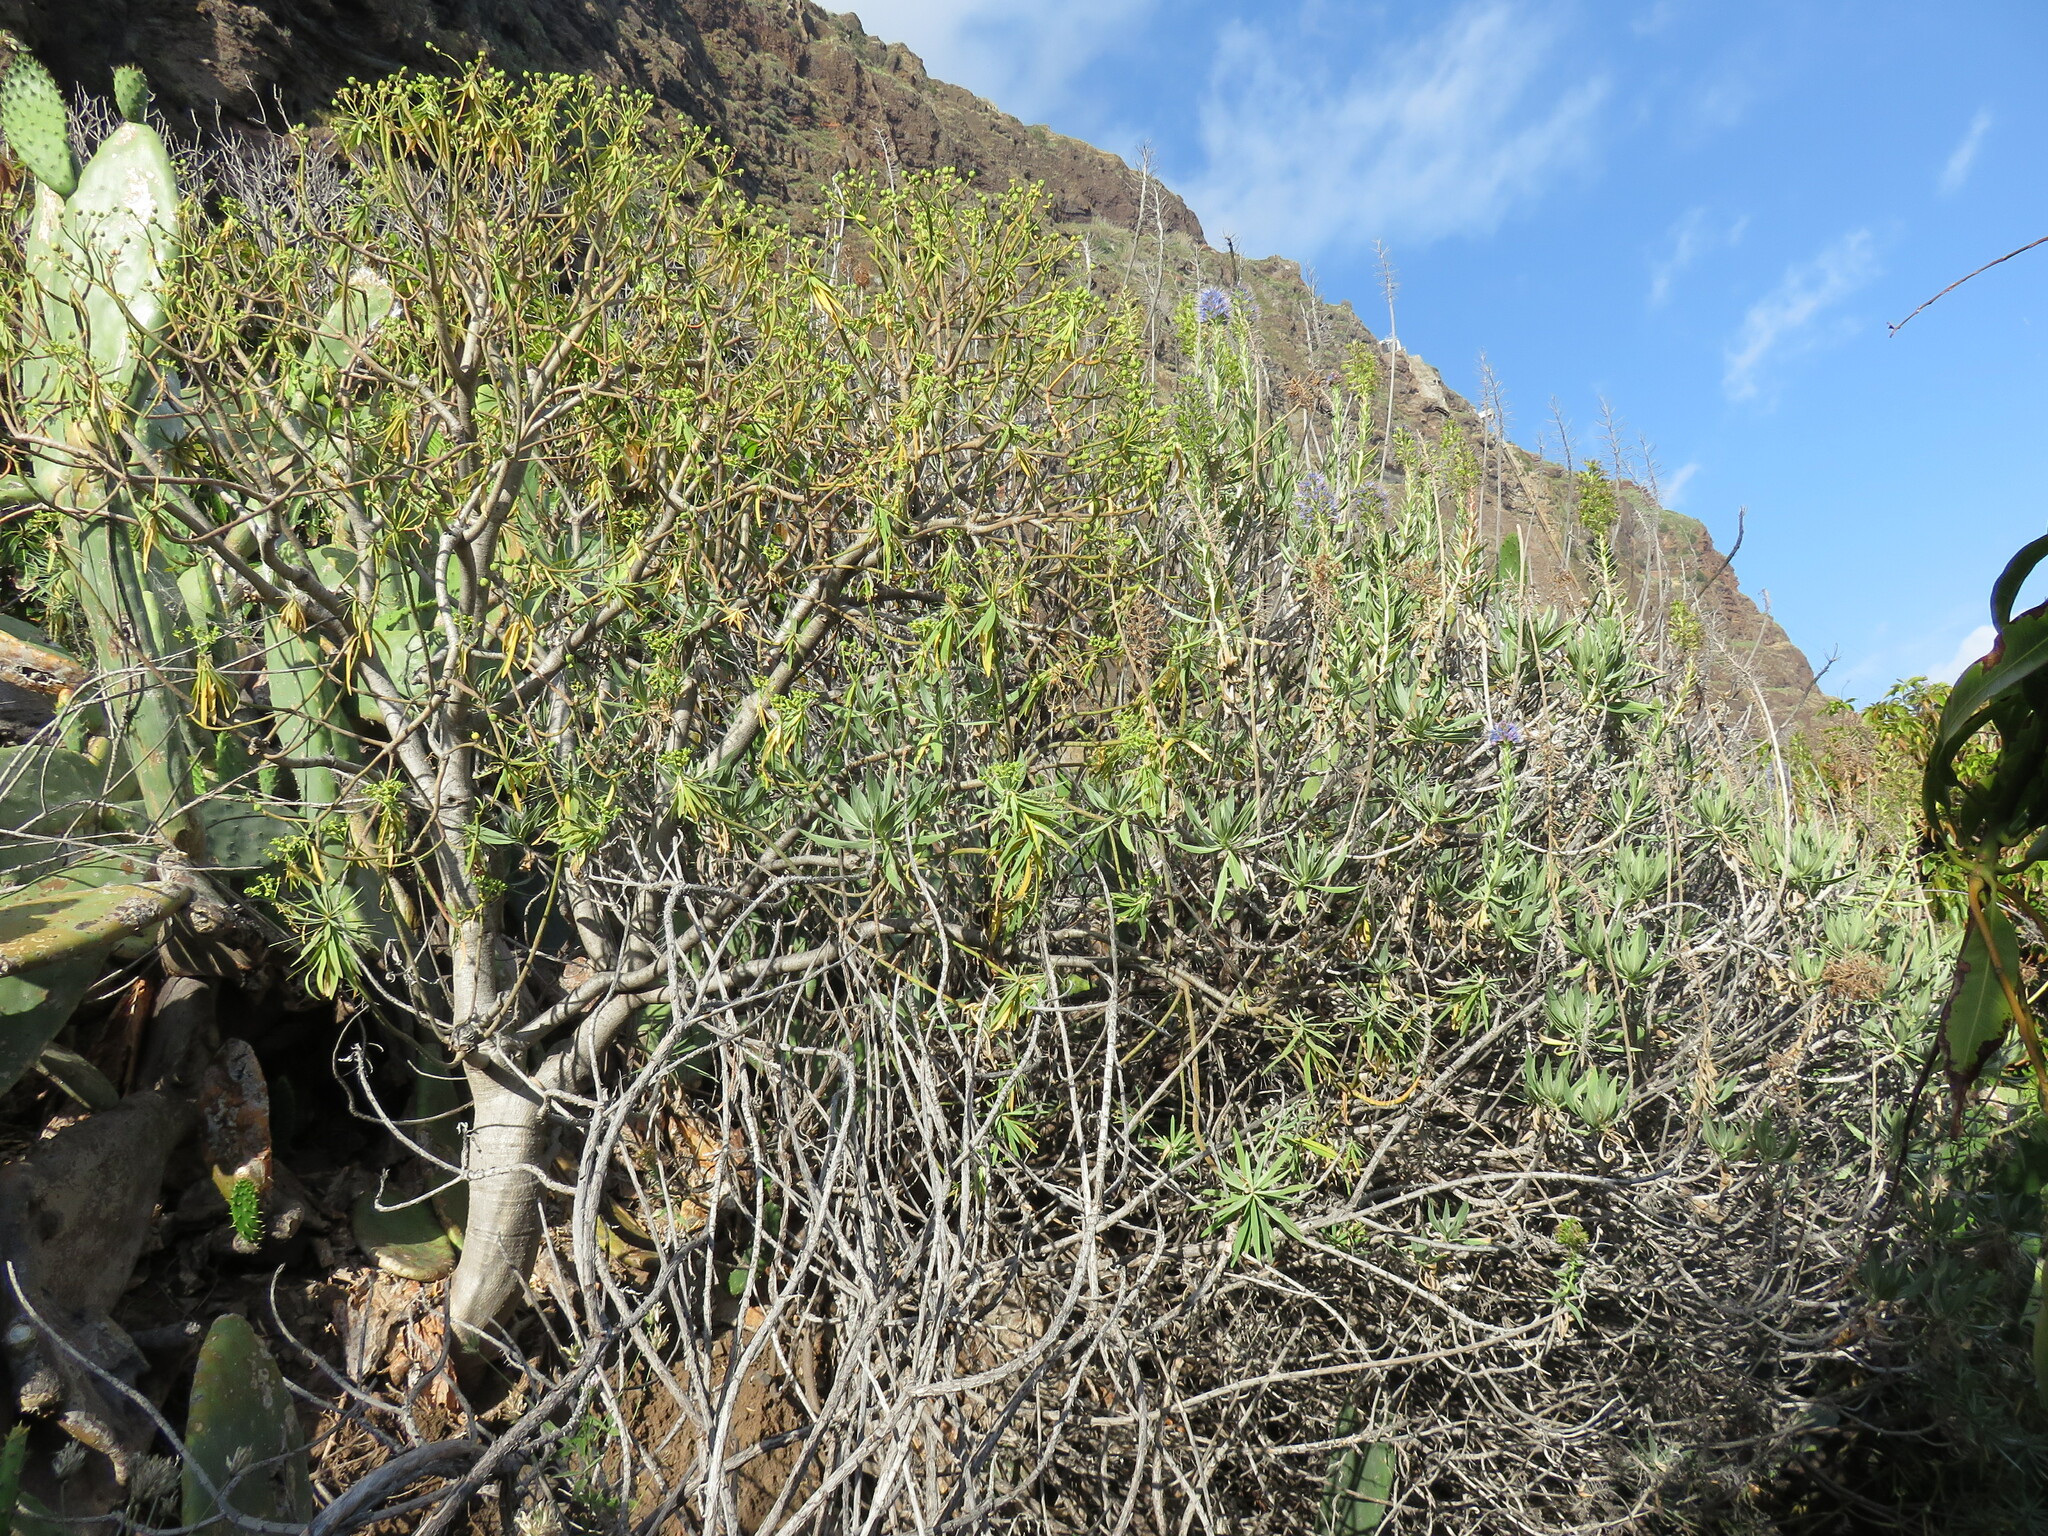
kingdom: Plantae
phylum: Tracheophyta
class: Magnoliopsida
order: Malpighiales
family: Euphorbiaceae
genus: Euphorbia
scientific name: Euphorbia piscatoria
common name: Fish-stunning spurge
